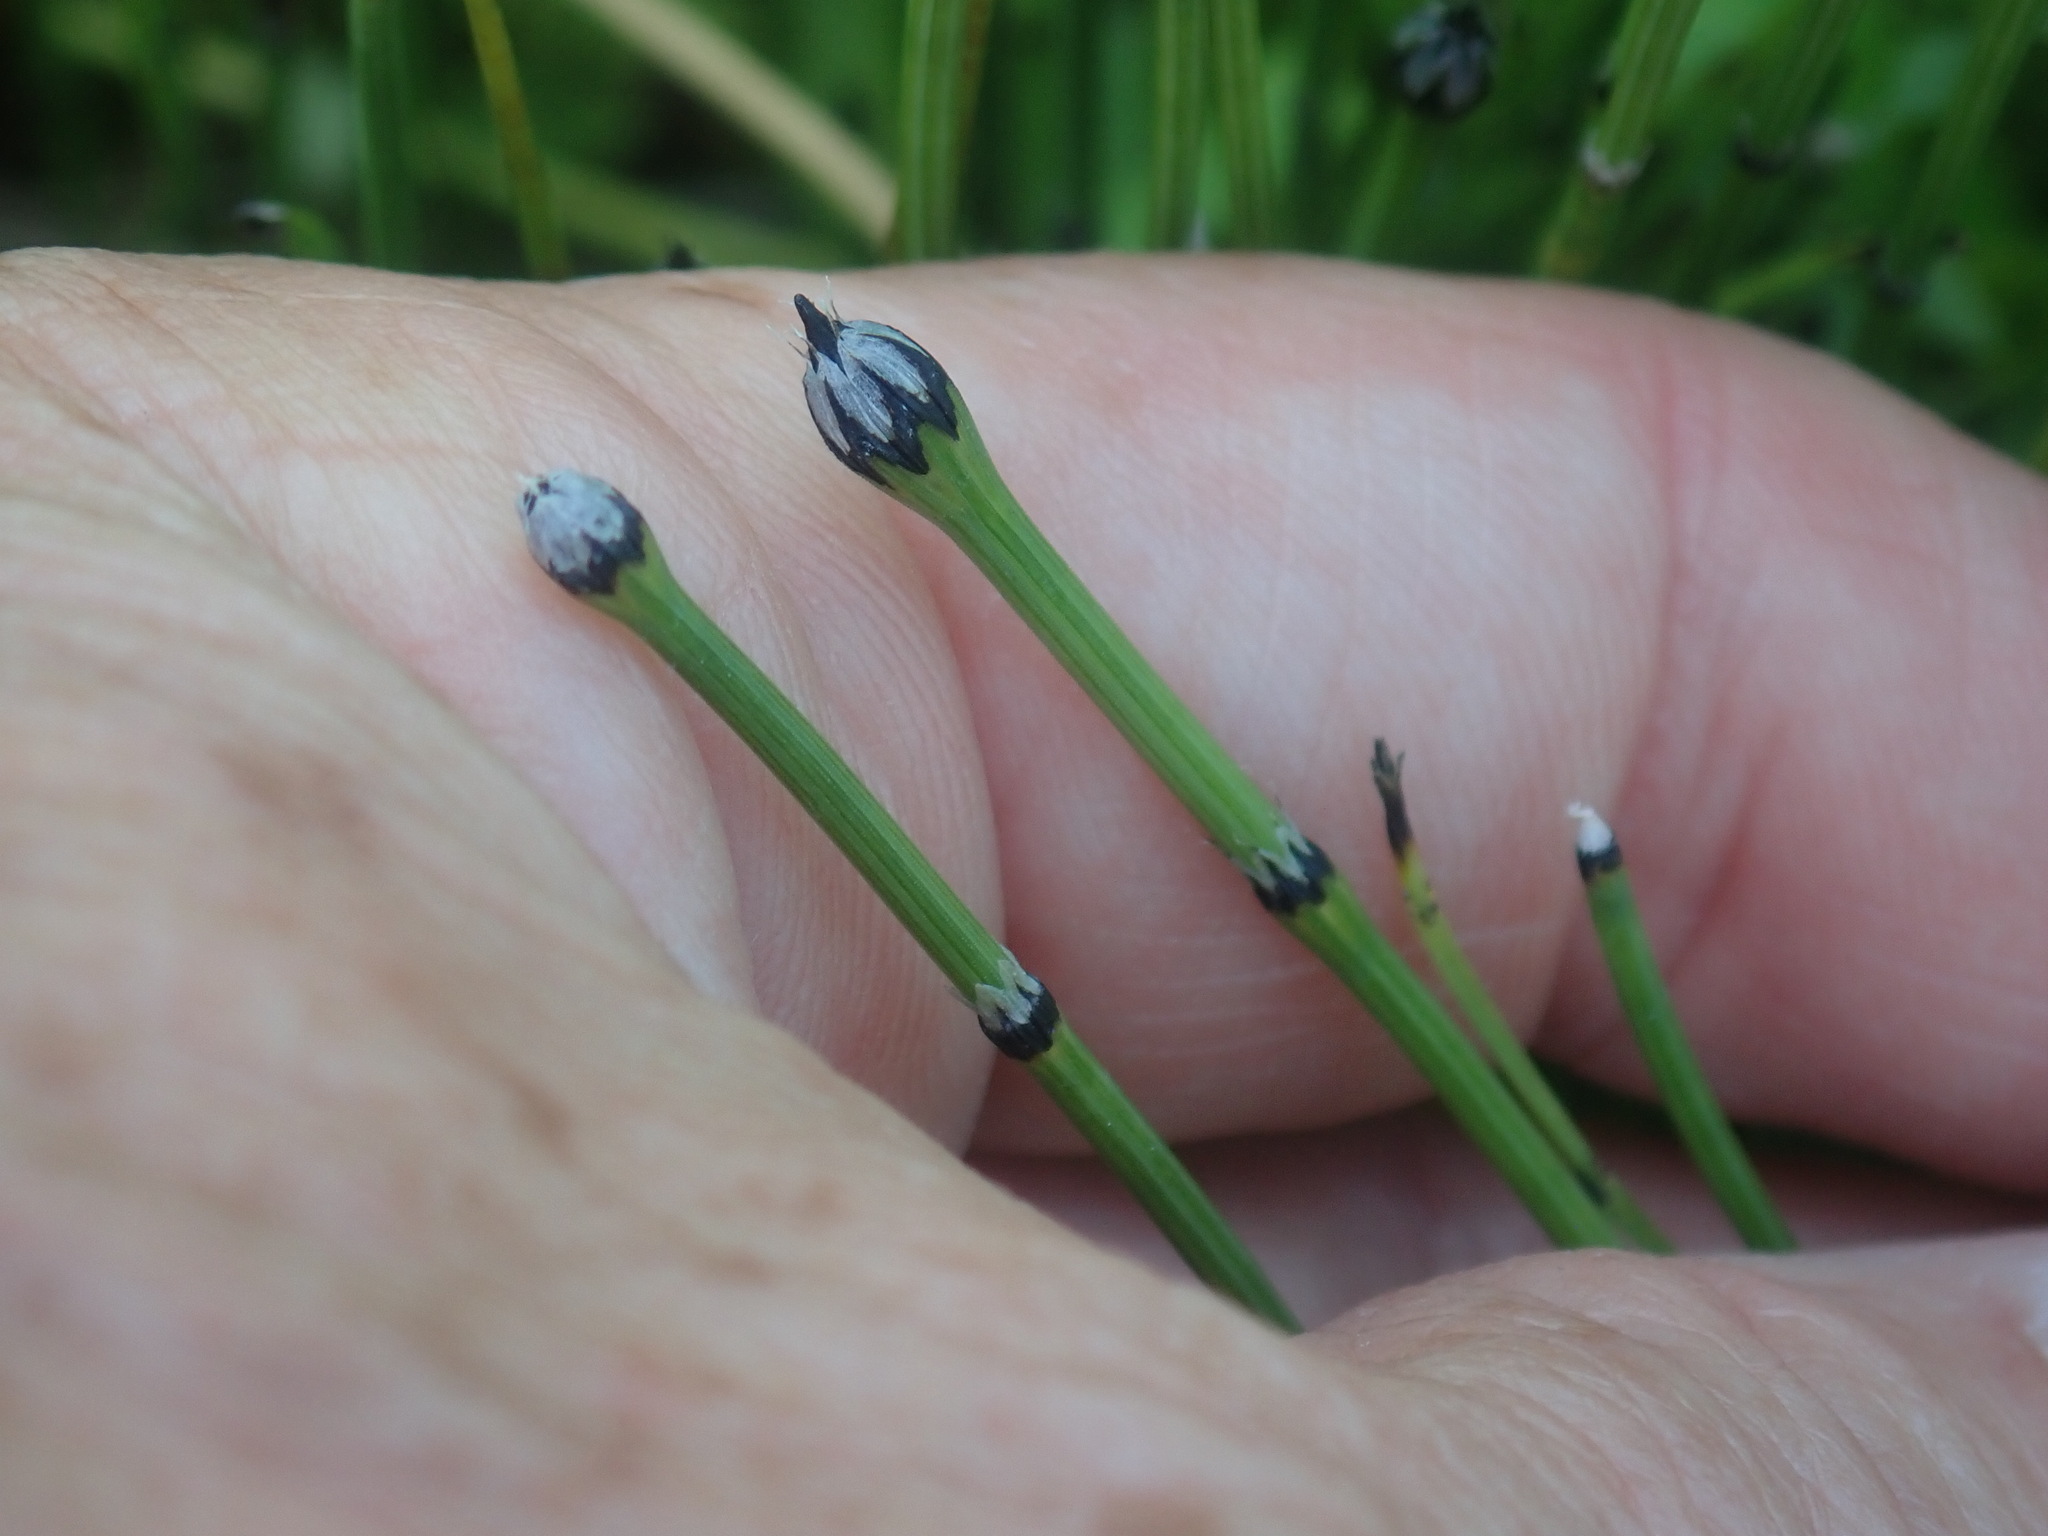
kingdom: Plantae
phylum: Tracheophyta
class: Polypodiopsida
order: Equisetales
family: Equisetaceae
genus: Equisetum
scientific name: Equisetum variegatum
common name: Variegated horsetail
